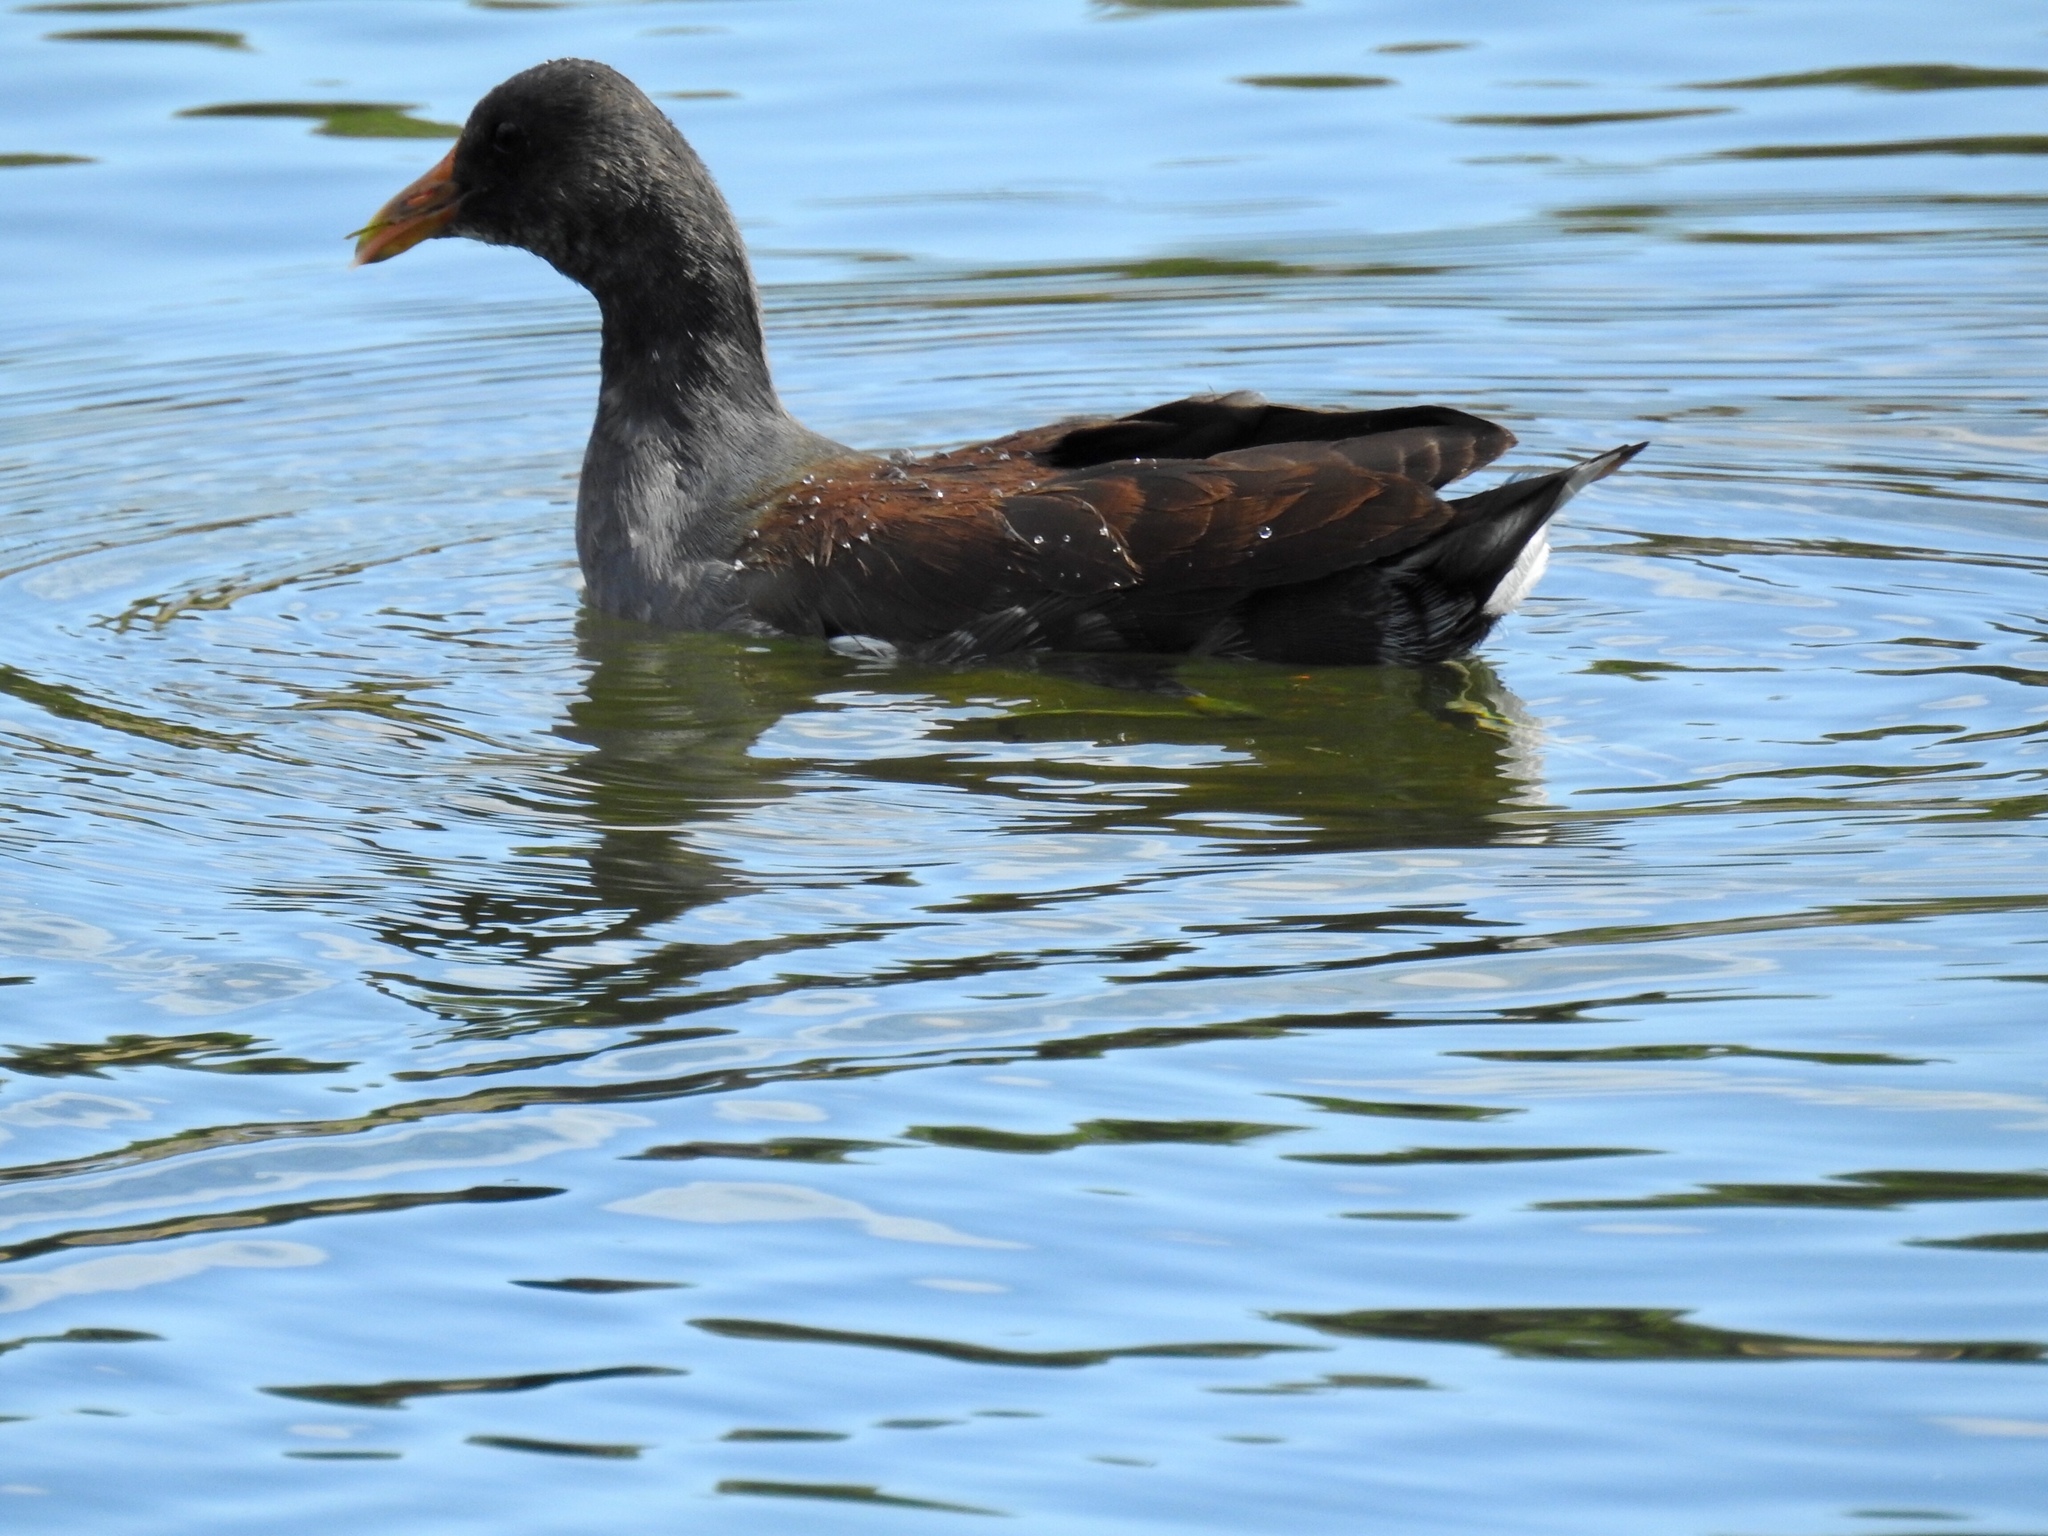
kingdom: Animalia
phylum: Chordata
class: Aves
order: Gruiformes
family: Rallidae
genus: Gallinula
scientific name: Gallinula chloropus
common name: Common moorhen
